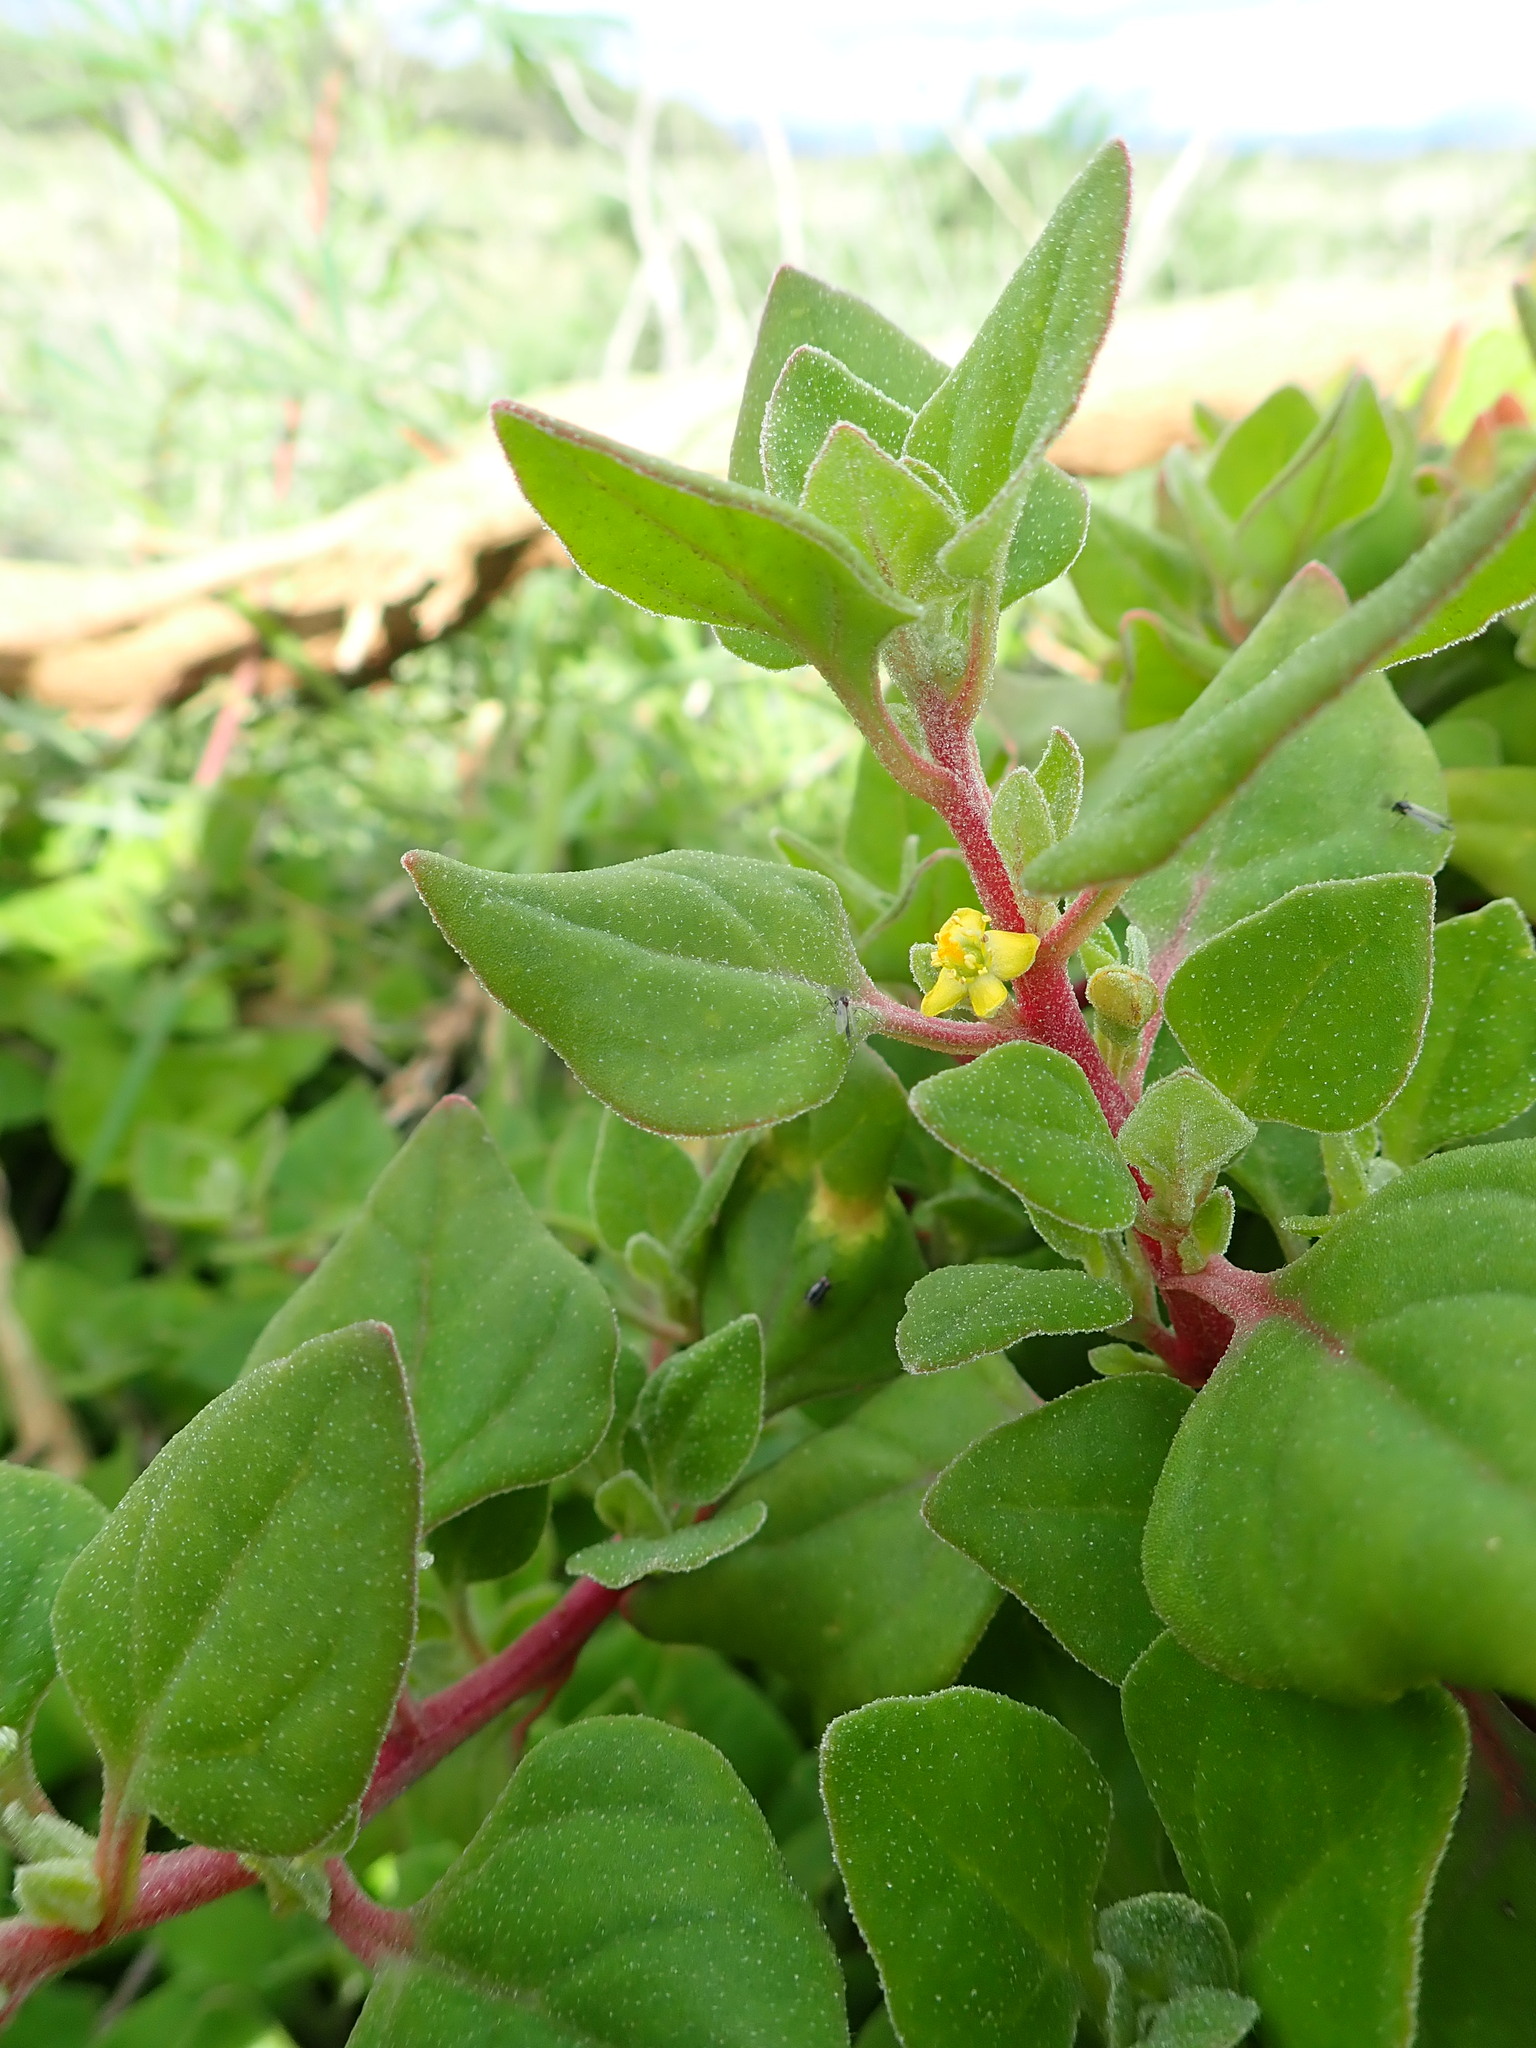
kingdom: Plantae
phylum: Tracheophyta
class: Magnoliopsida
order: Caryophyllales
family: Aizoaceae
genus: Tetragonia
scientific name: Tetragonia implexicoma
